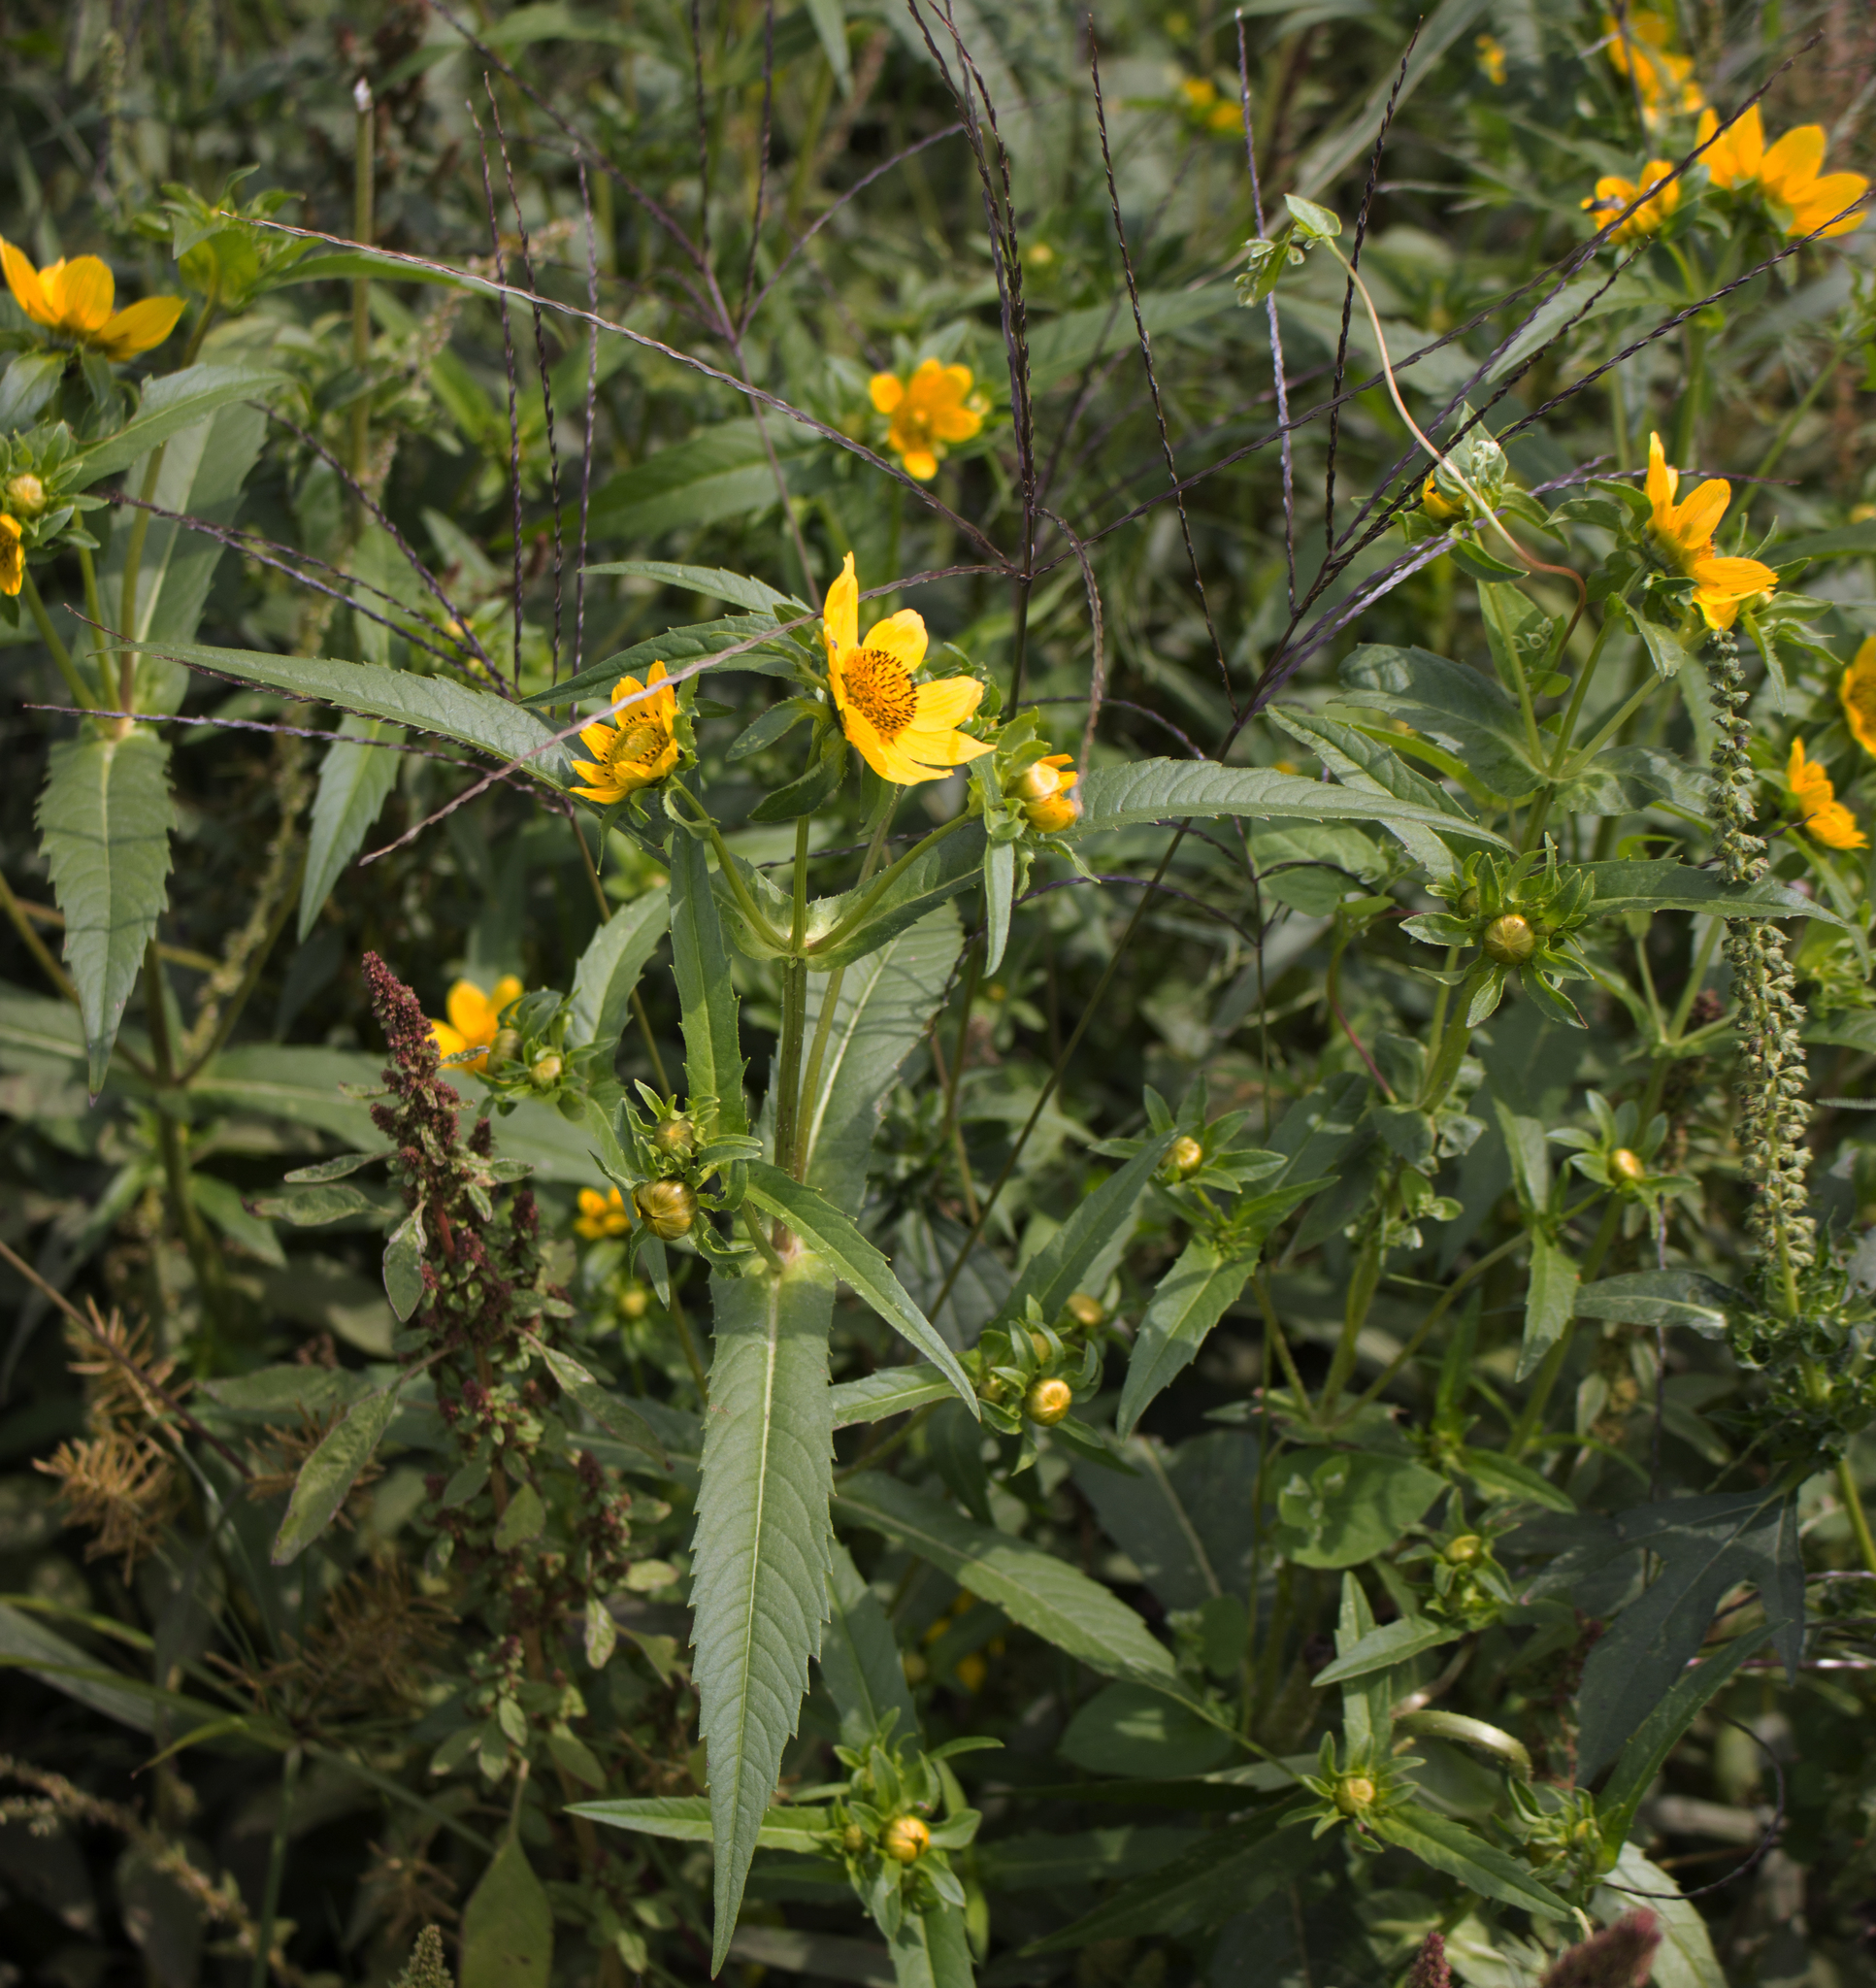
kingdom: Plantae
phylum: Tracheophyta
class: Magnoliopsida
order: Asterales
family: Asteraceae
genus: Bidens
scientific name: Bidens cernua
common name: Nodding bur-marigold
